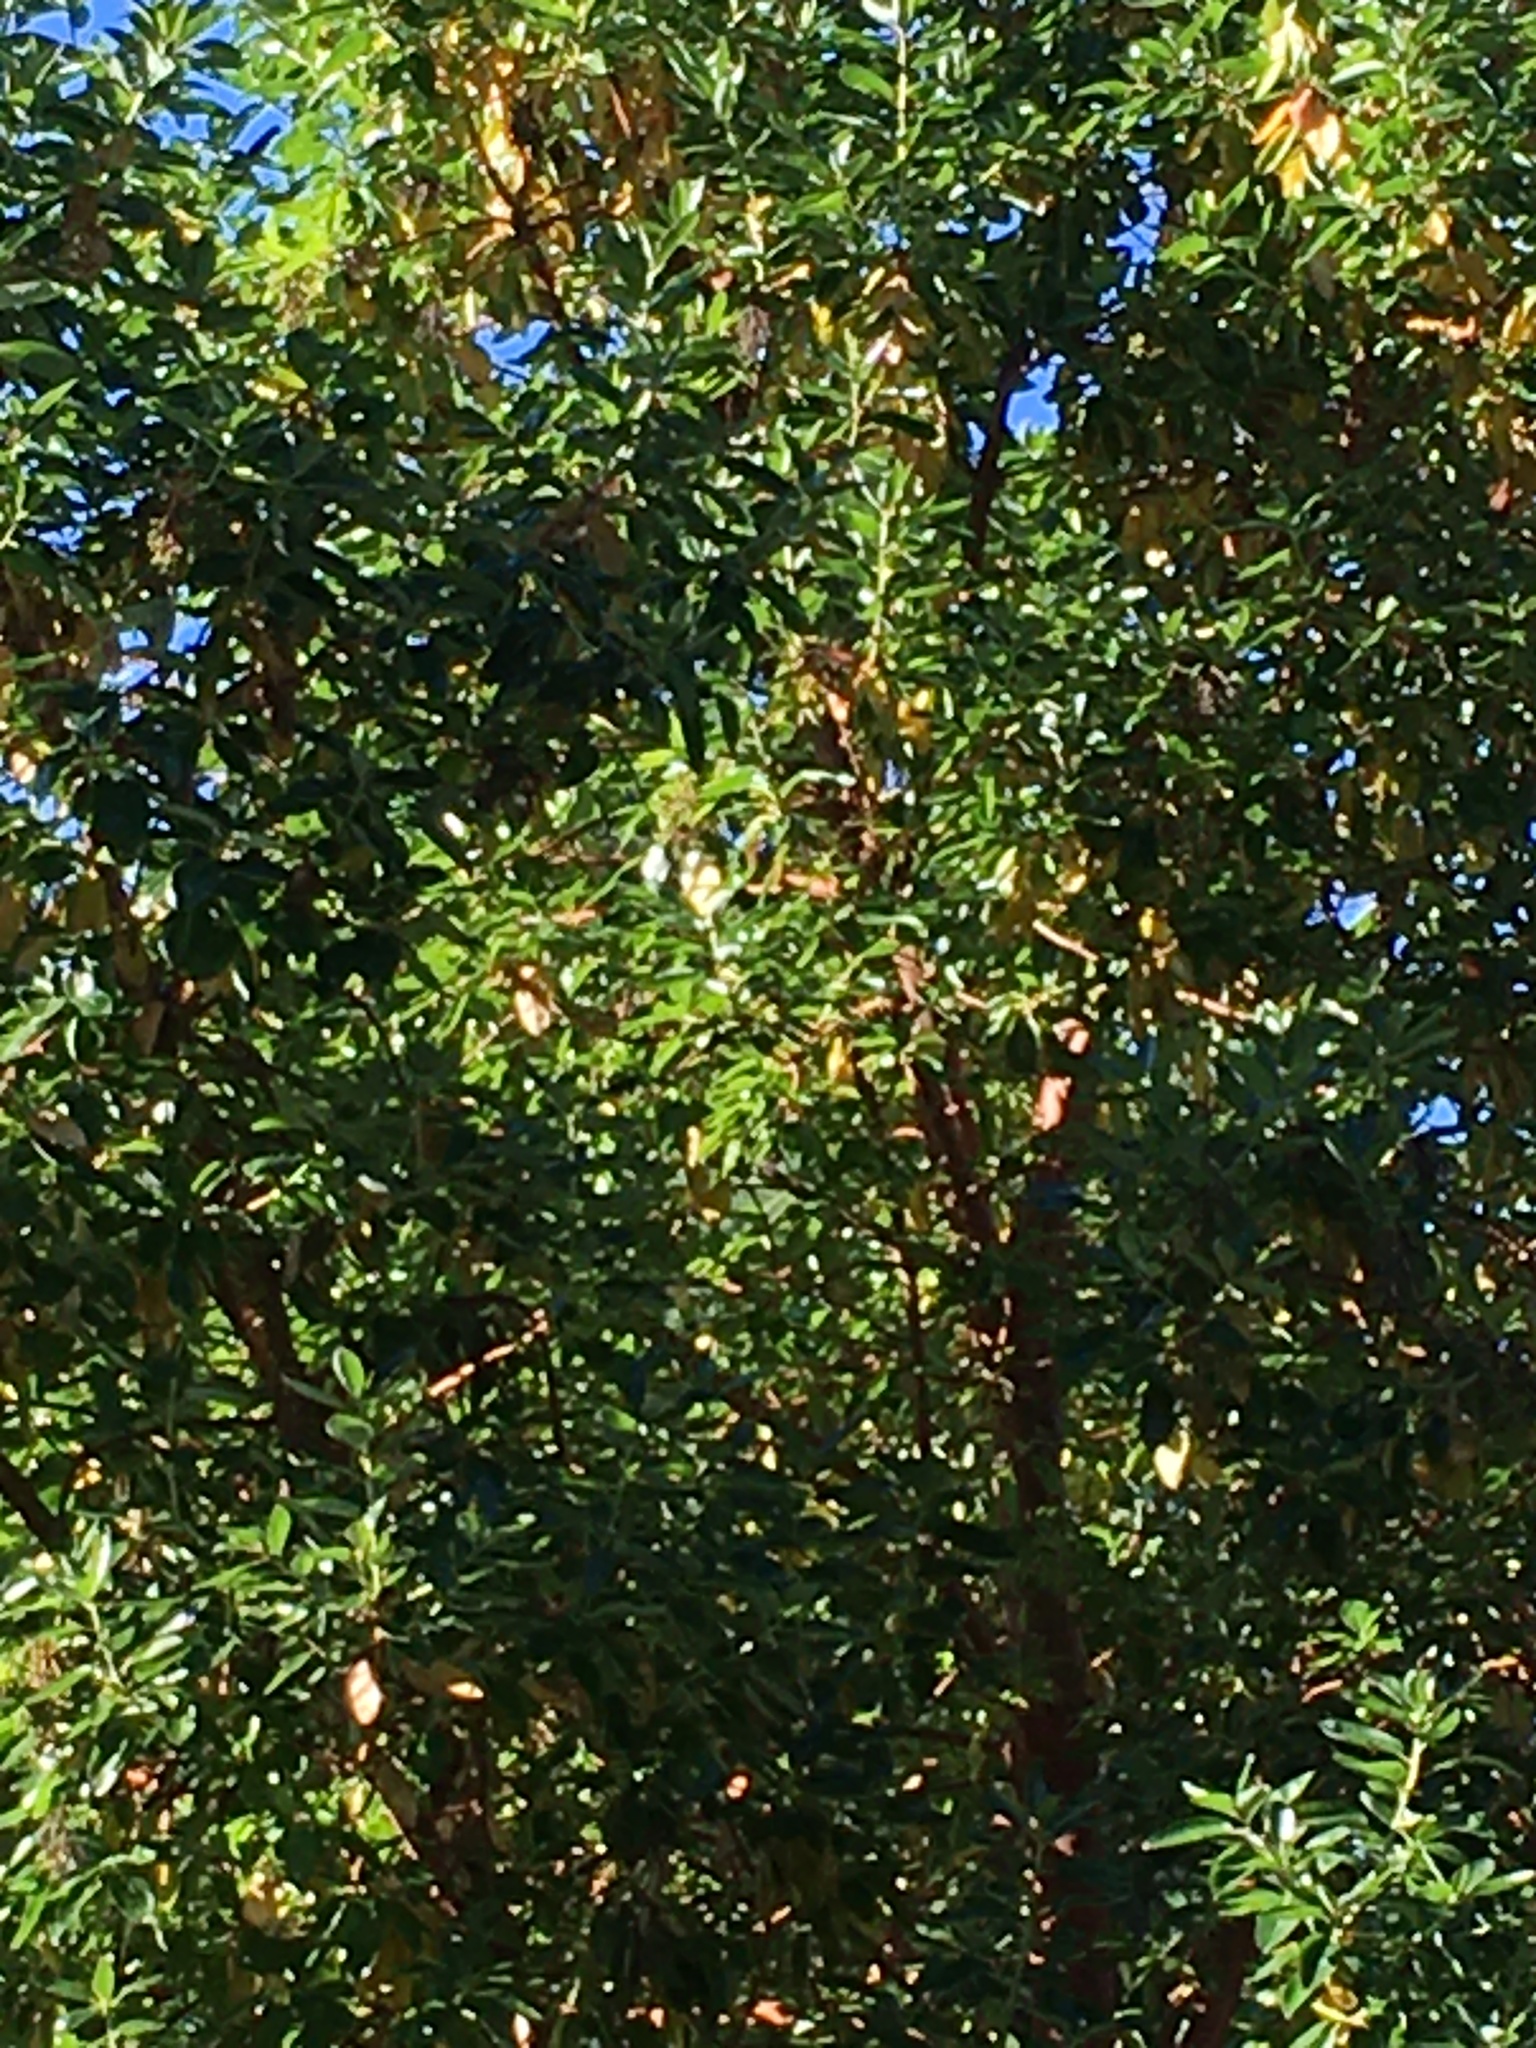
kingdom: Plantae
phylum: Tracheophyta
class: Magnoliopsida
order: Ericales
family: Ericaceae
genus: Arbutus
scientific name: Arbutus menziesii
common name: Pacific madrone
